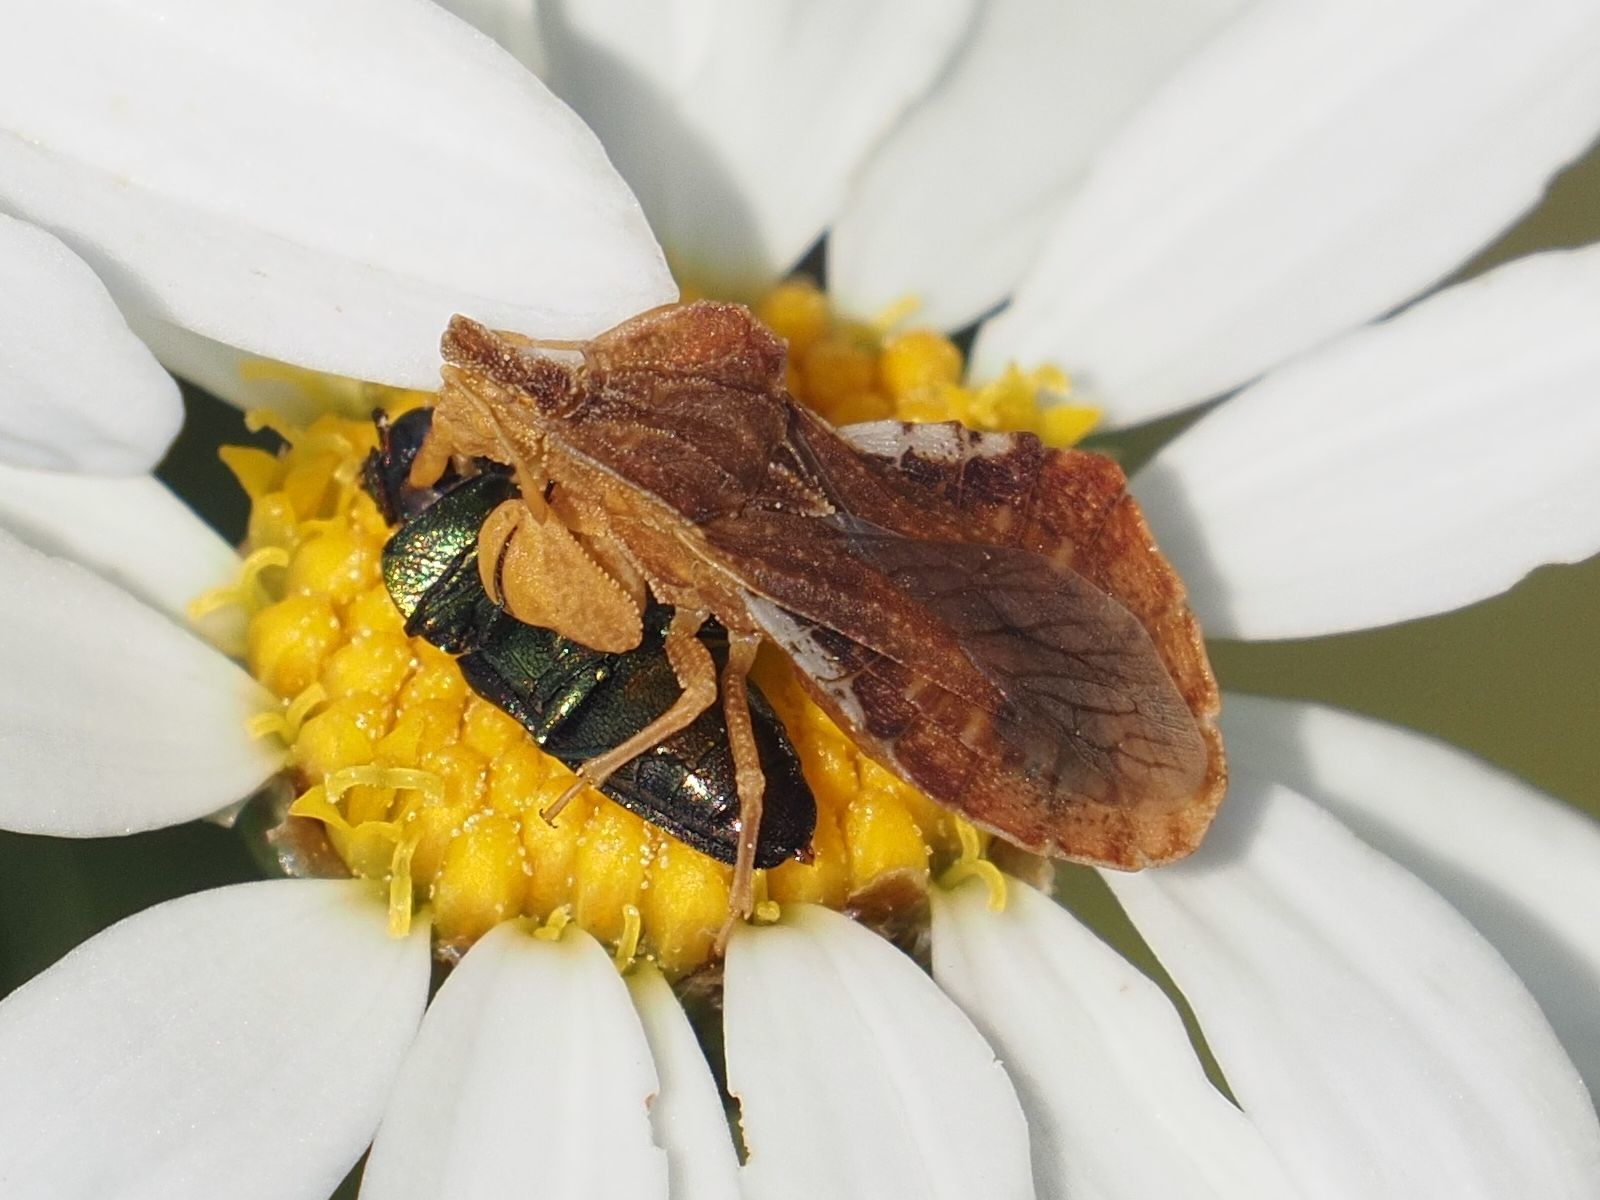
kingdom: Animalia
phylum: Arthropoda
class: Insecta
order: Hemiptera
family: Reduviidae
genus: Phymata
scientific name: Phymata crassipes
